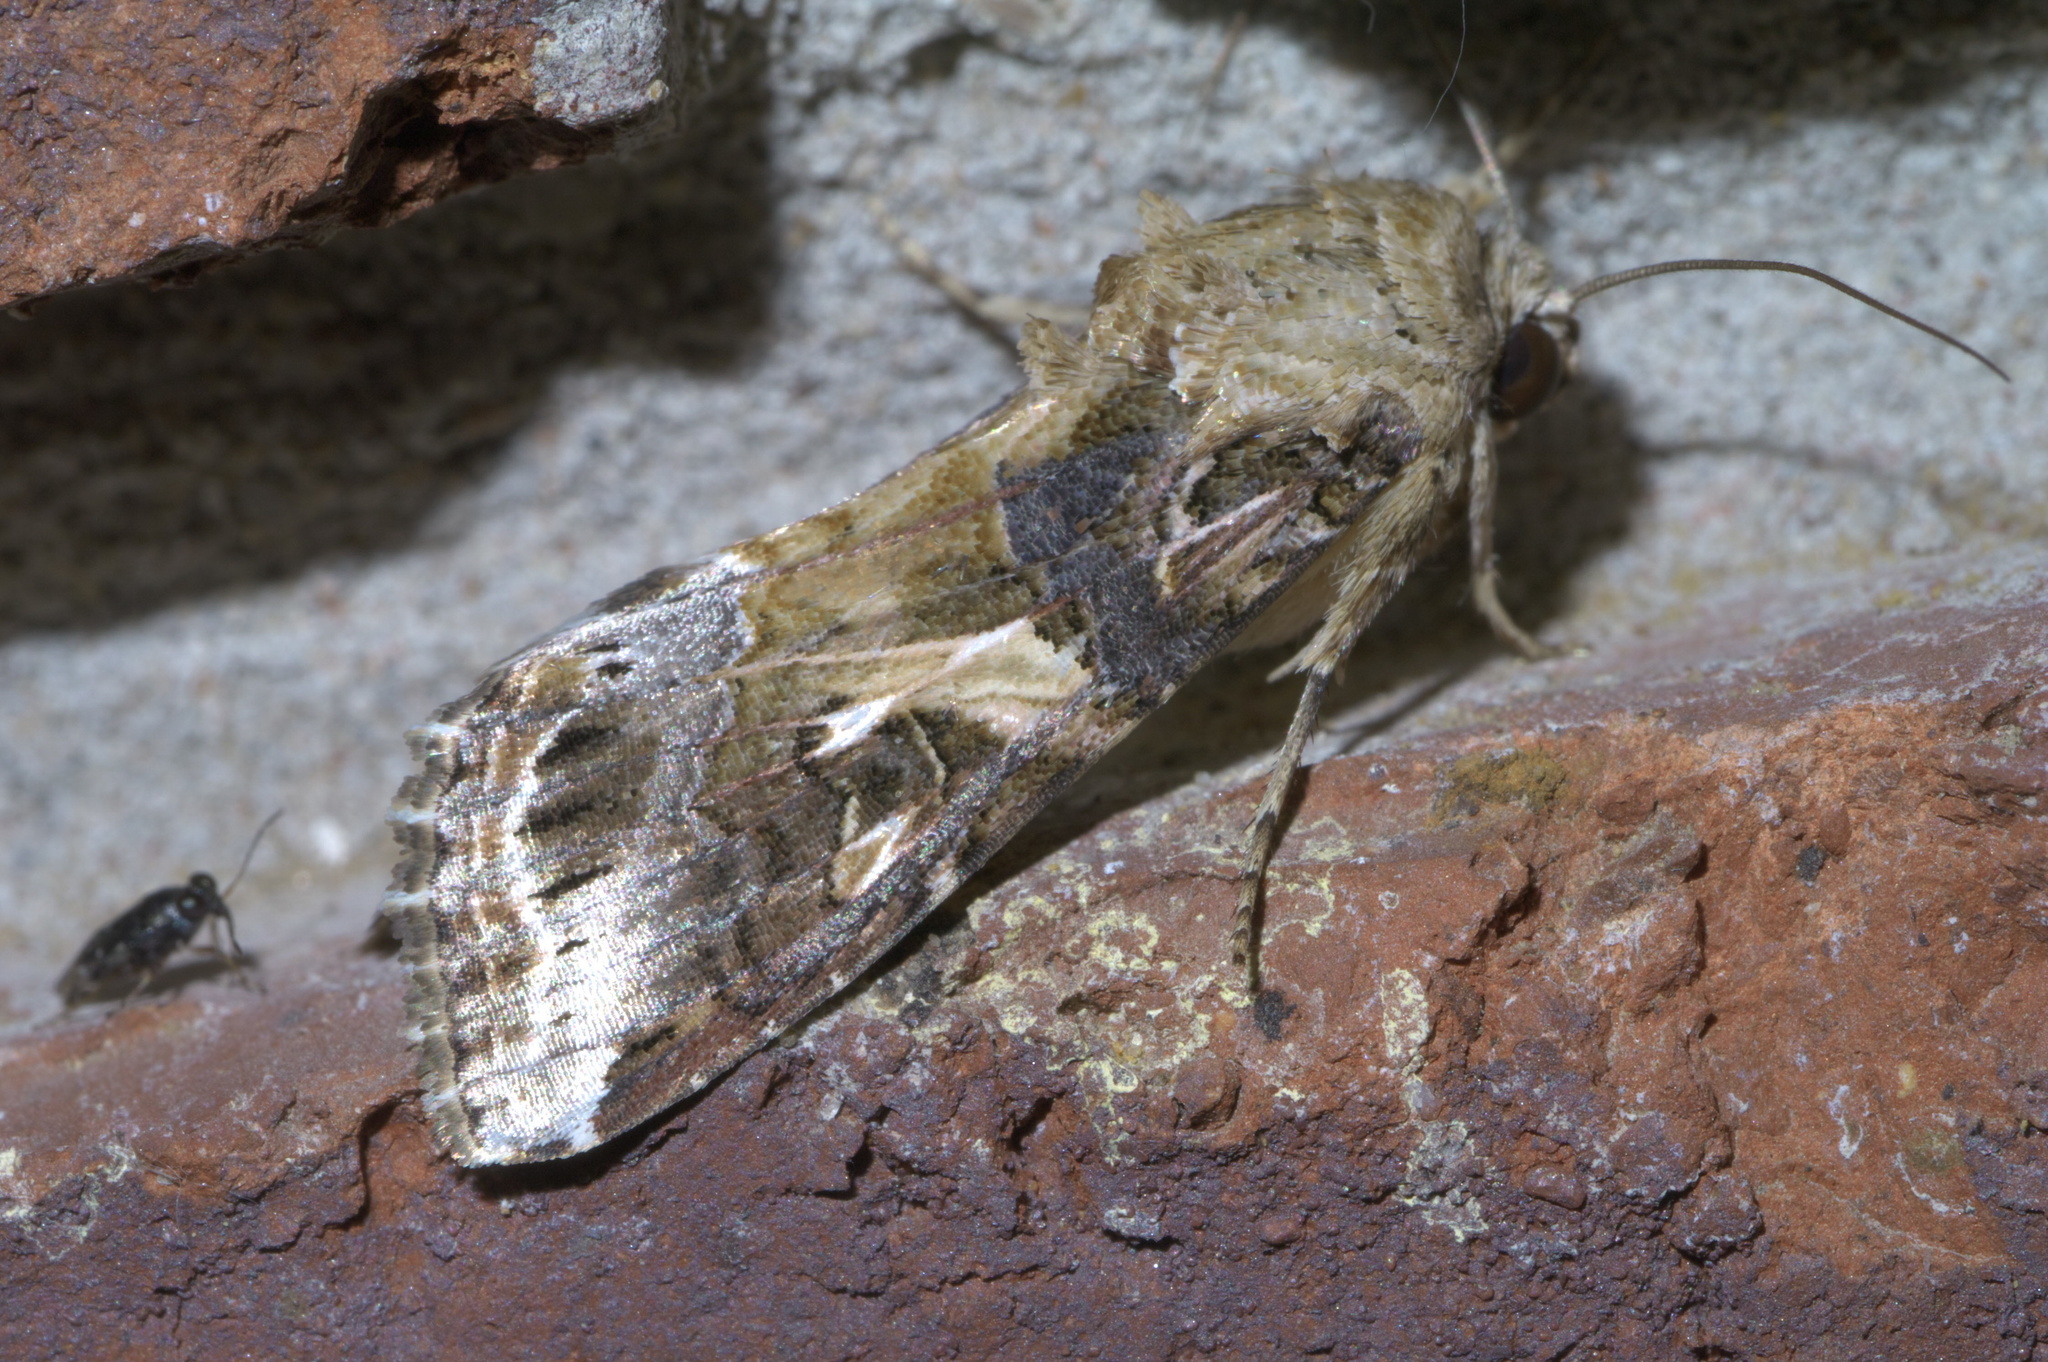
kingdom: Animalia
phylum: Arthropoda
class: Insecta
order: Lepidoptera
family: Noctuidae
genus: Spodoptera
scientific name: Spodoptera ornithogalli
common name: Yellow-striped armyworm
